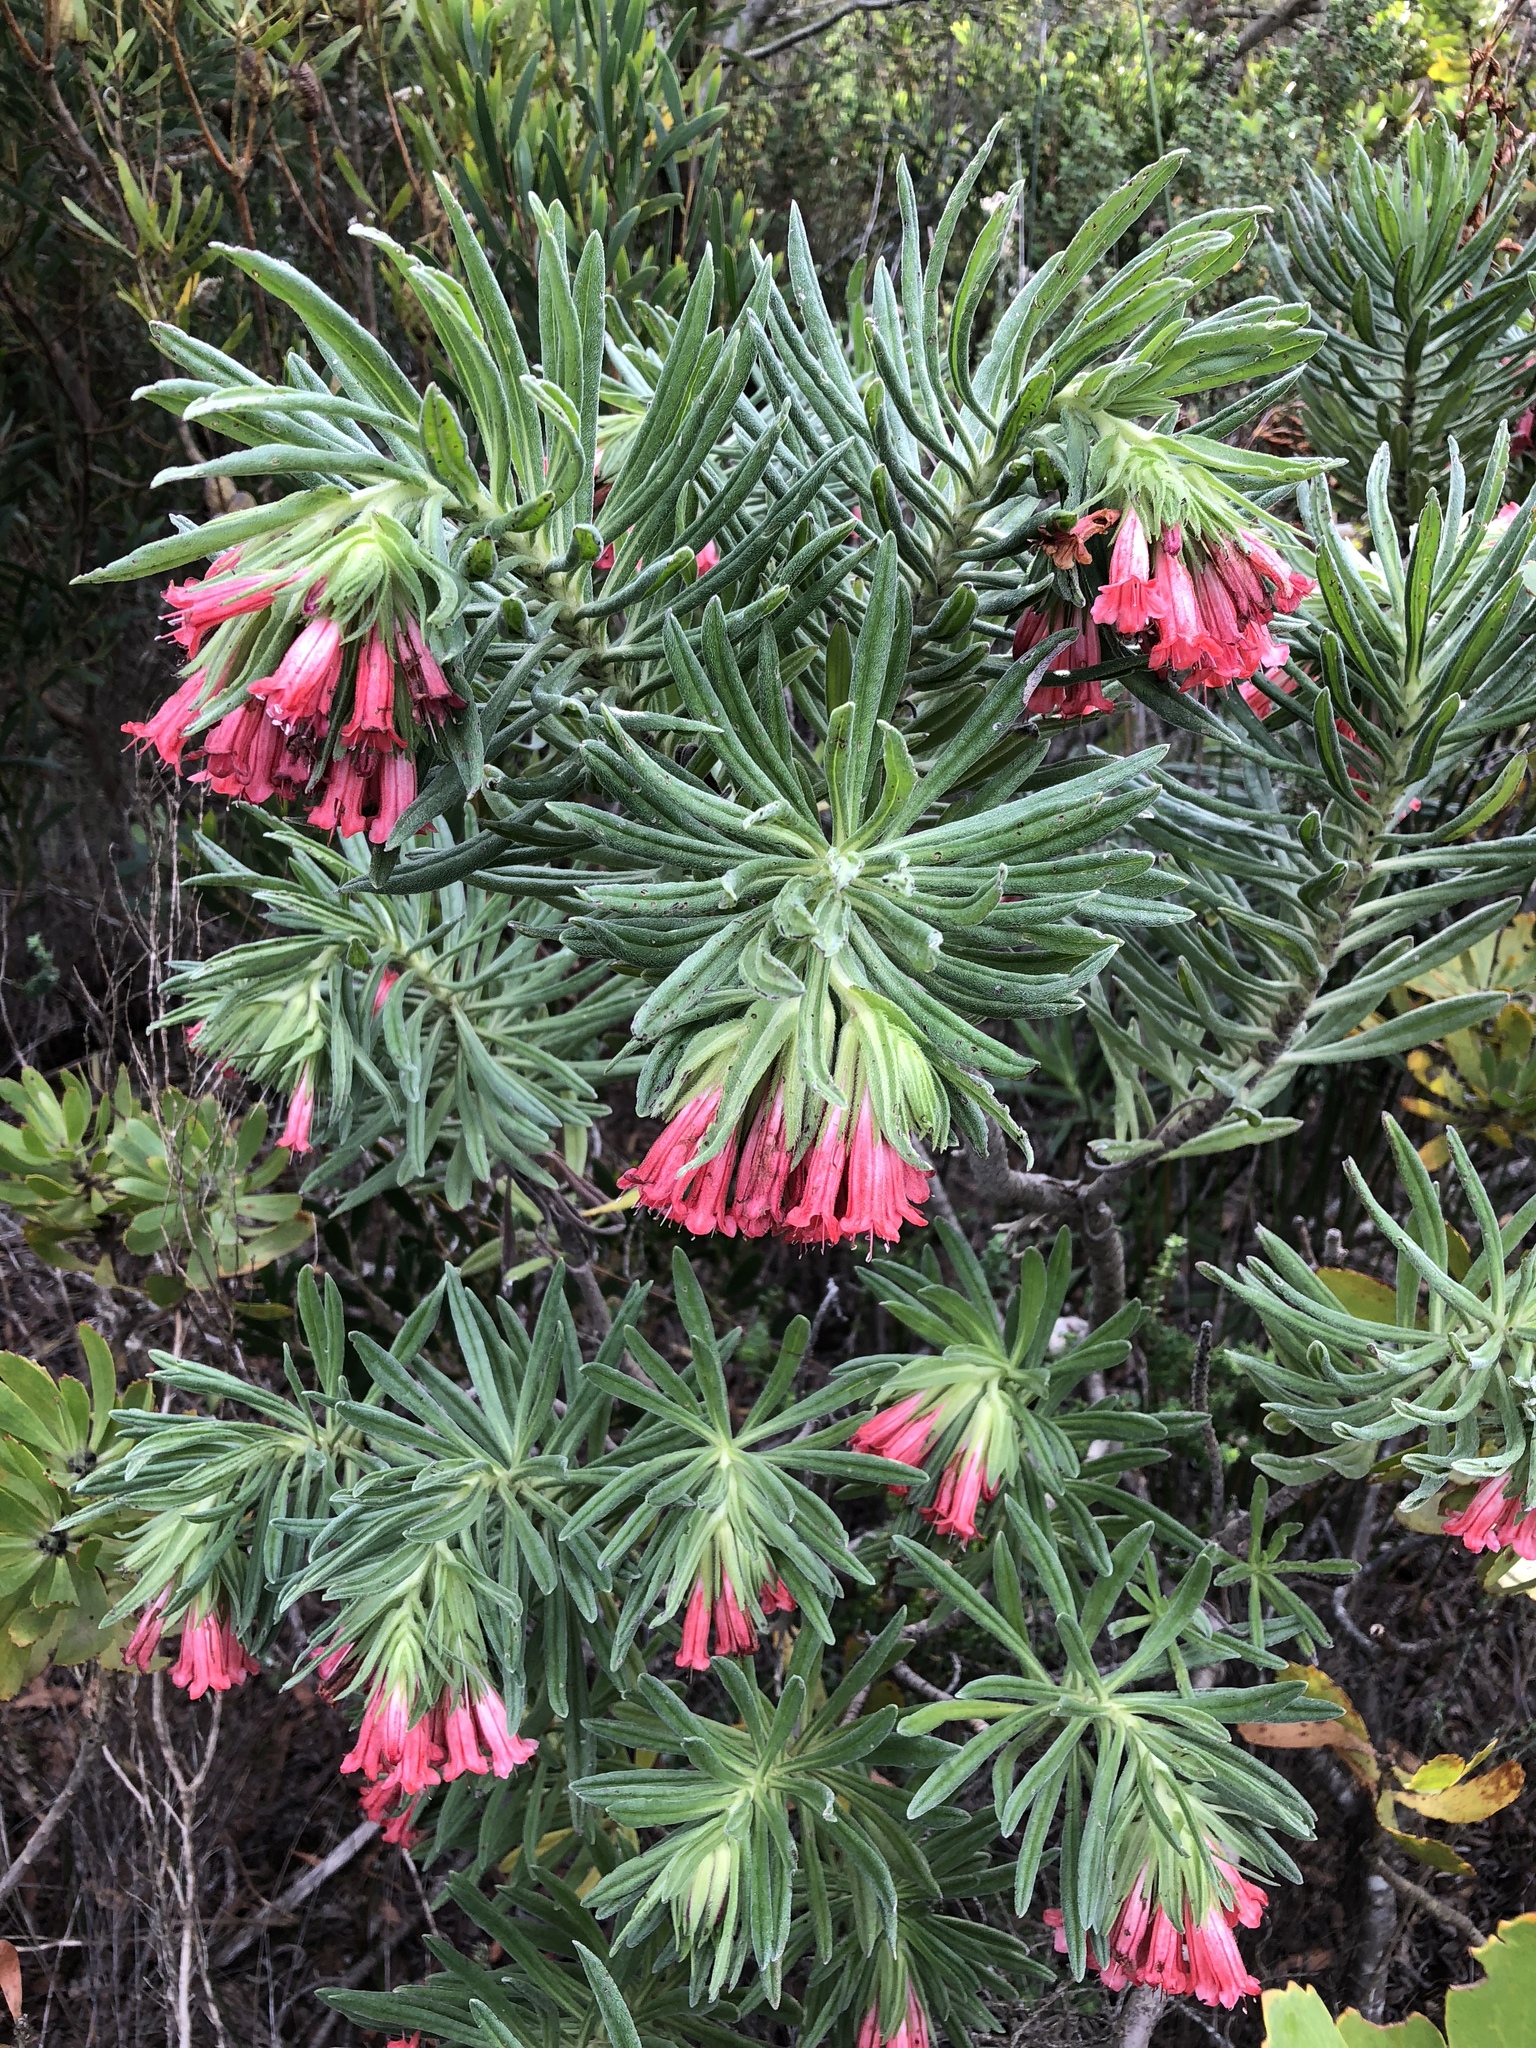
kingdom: Plantae
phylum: Tracheophyta
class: Magnoliopsida
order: Boraginales
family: Boraginaceae
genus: Lobostemon
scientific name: Lobostemon belliformis
